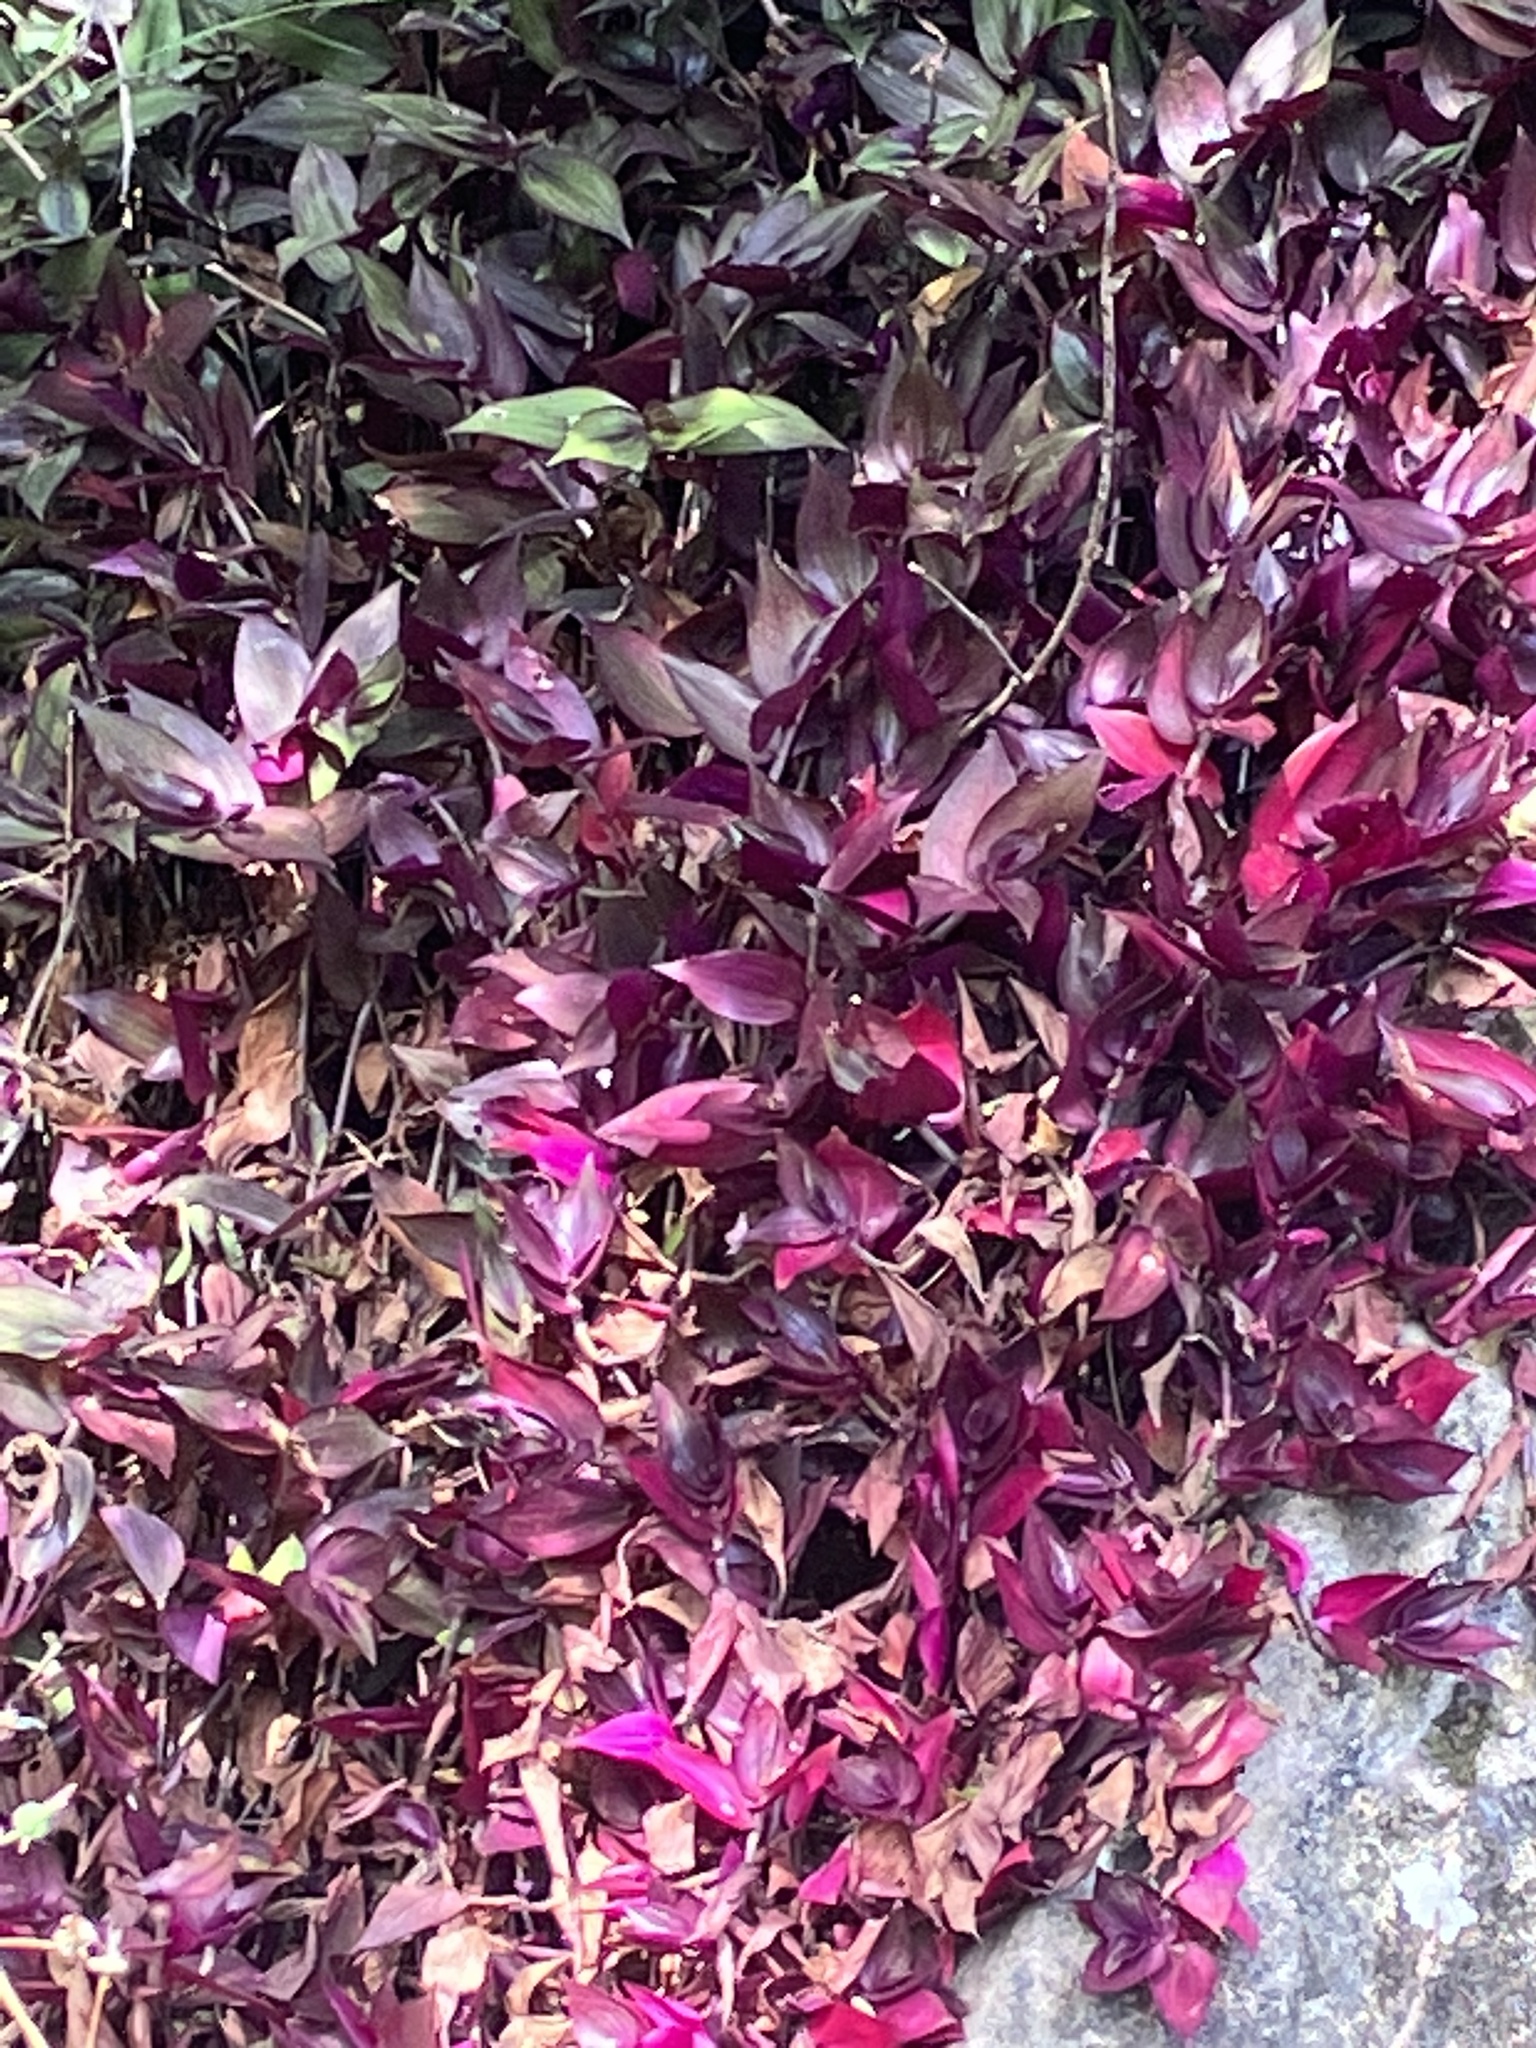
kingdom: Plantae
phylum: Tracheophyta
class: Liliopsida
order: Commelinales
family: Commelinaceae
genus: Tradescantia
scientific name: Tradescantia zebrina
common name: Inchplant
